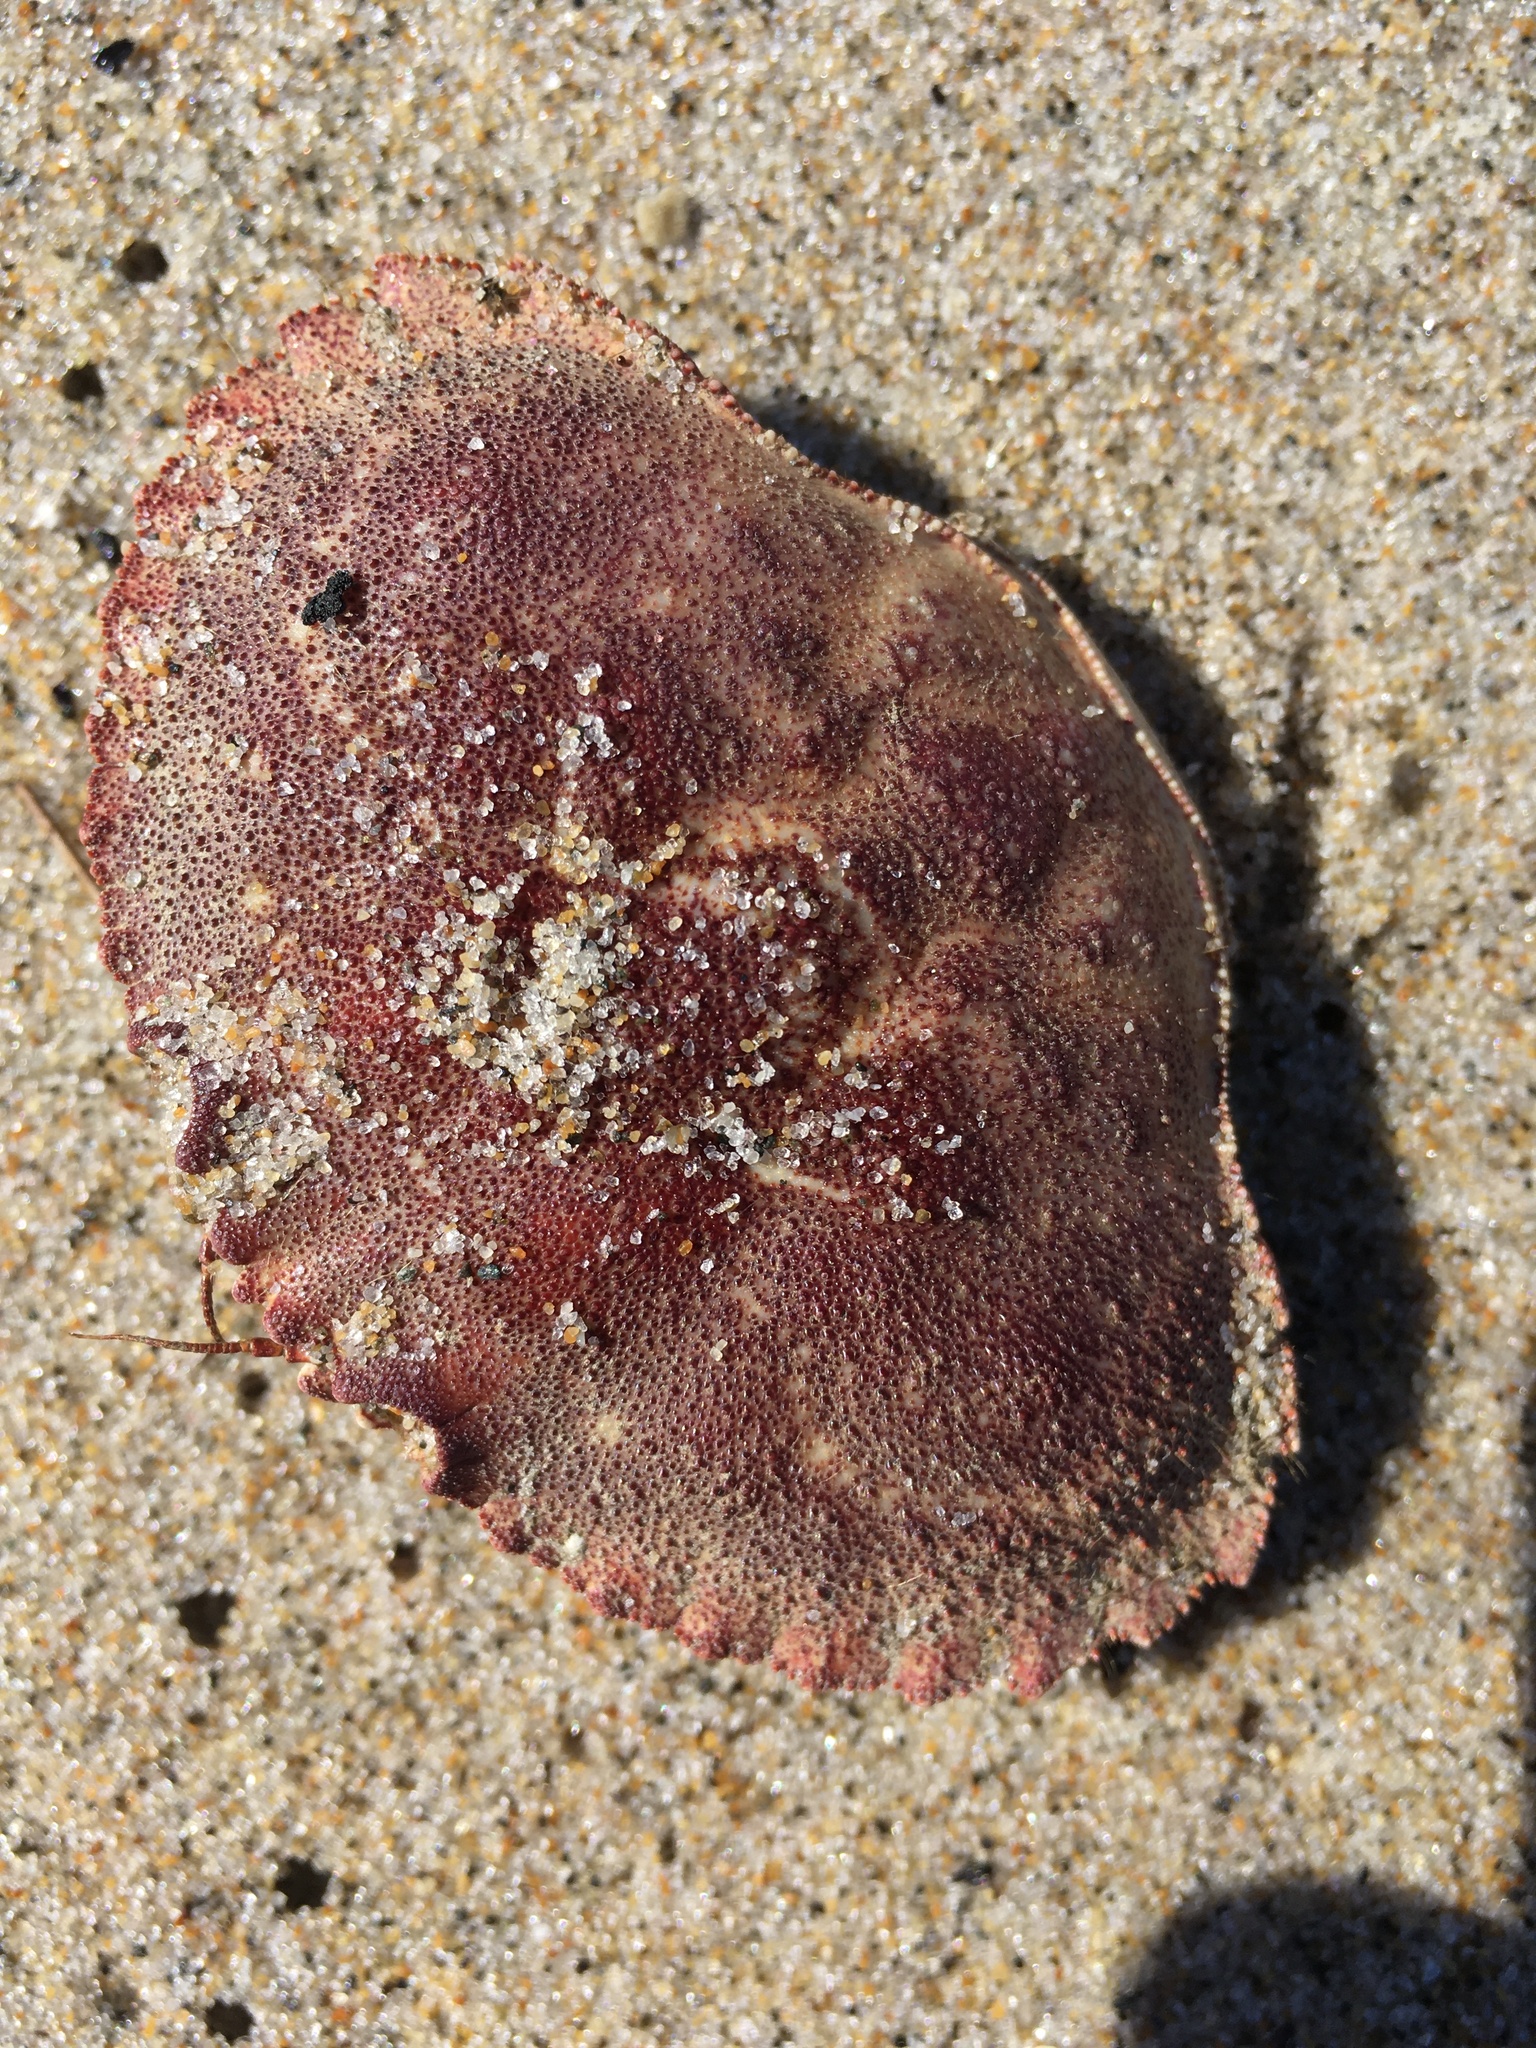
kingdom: Animalia
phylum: Arthropoda
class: Malacostraca
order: Decapoda
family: Cancridae
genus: Cancer
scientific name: Cancer borealis
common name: Jonah crab
